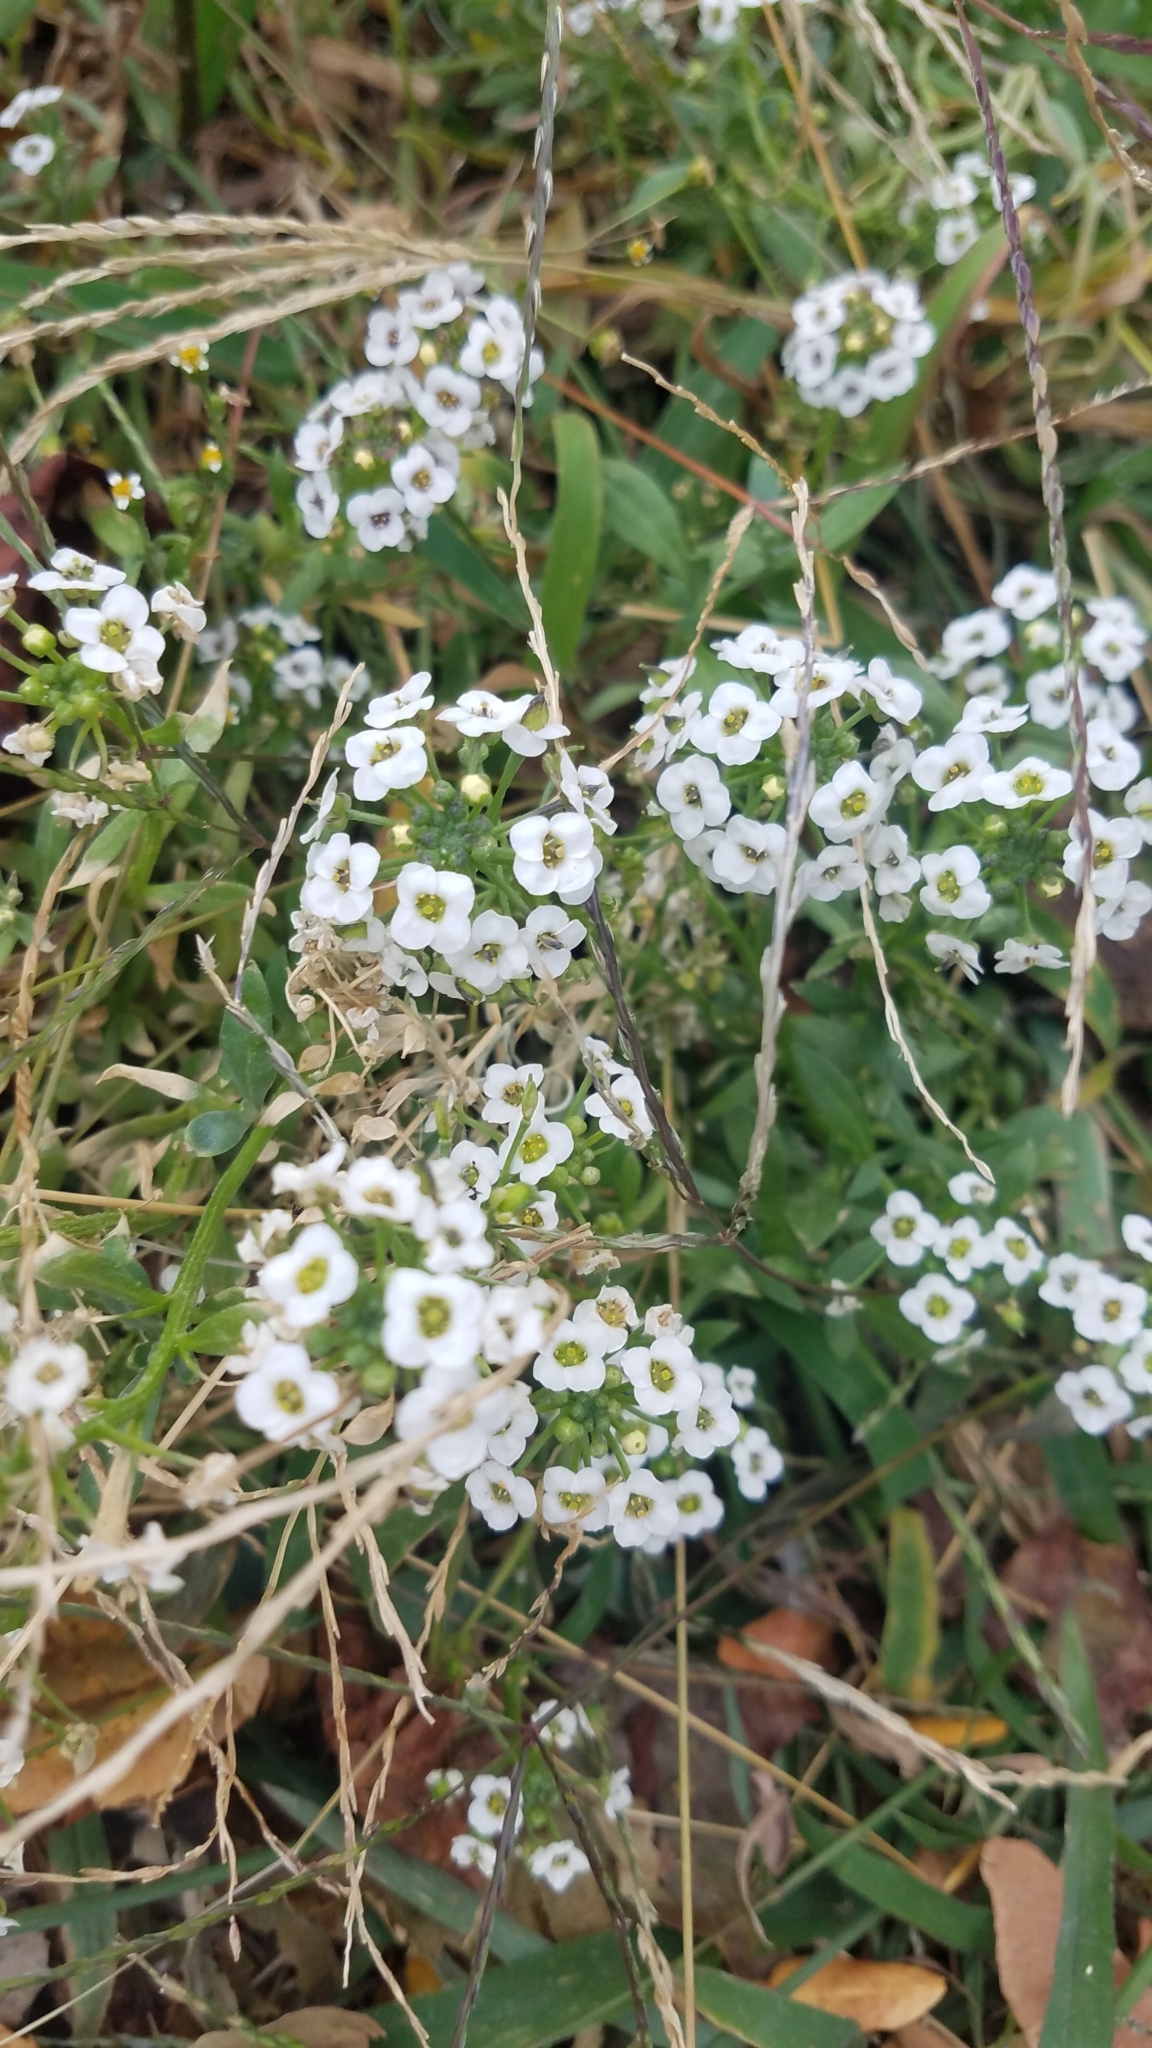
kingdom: Plantae
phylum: Tracheophyta
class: Magnoliopsida
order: Brassicales
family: Brassicaceae
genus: Lobularia
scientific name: Lobularia maritima
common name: Sweet alison
